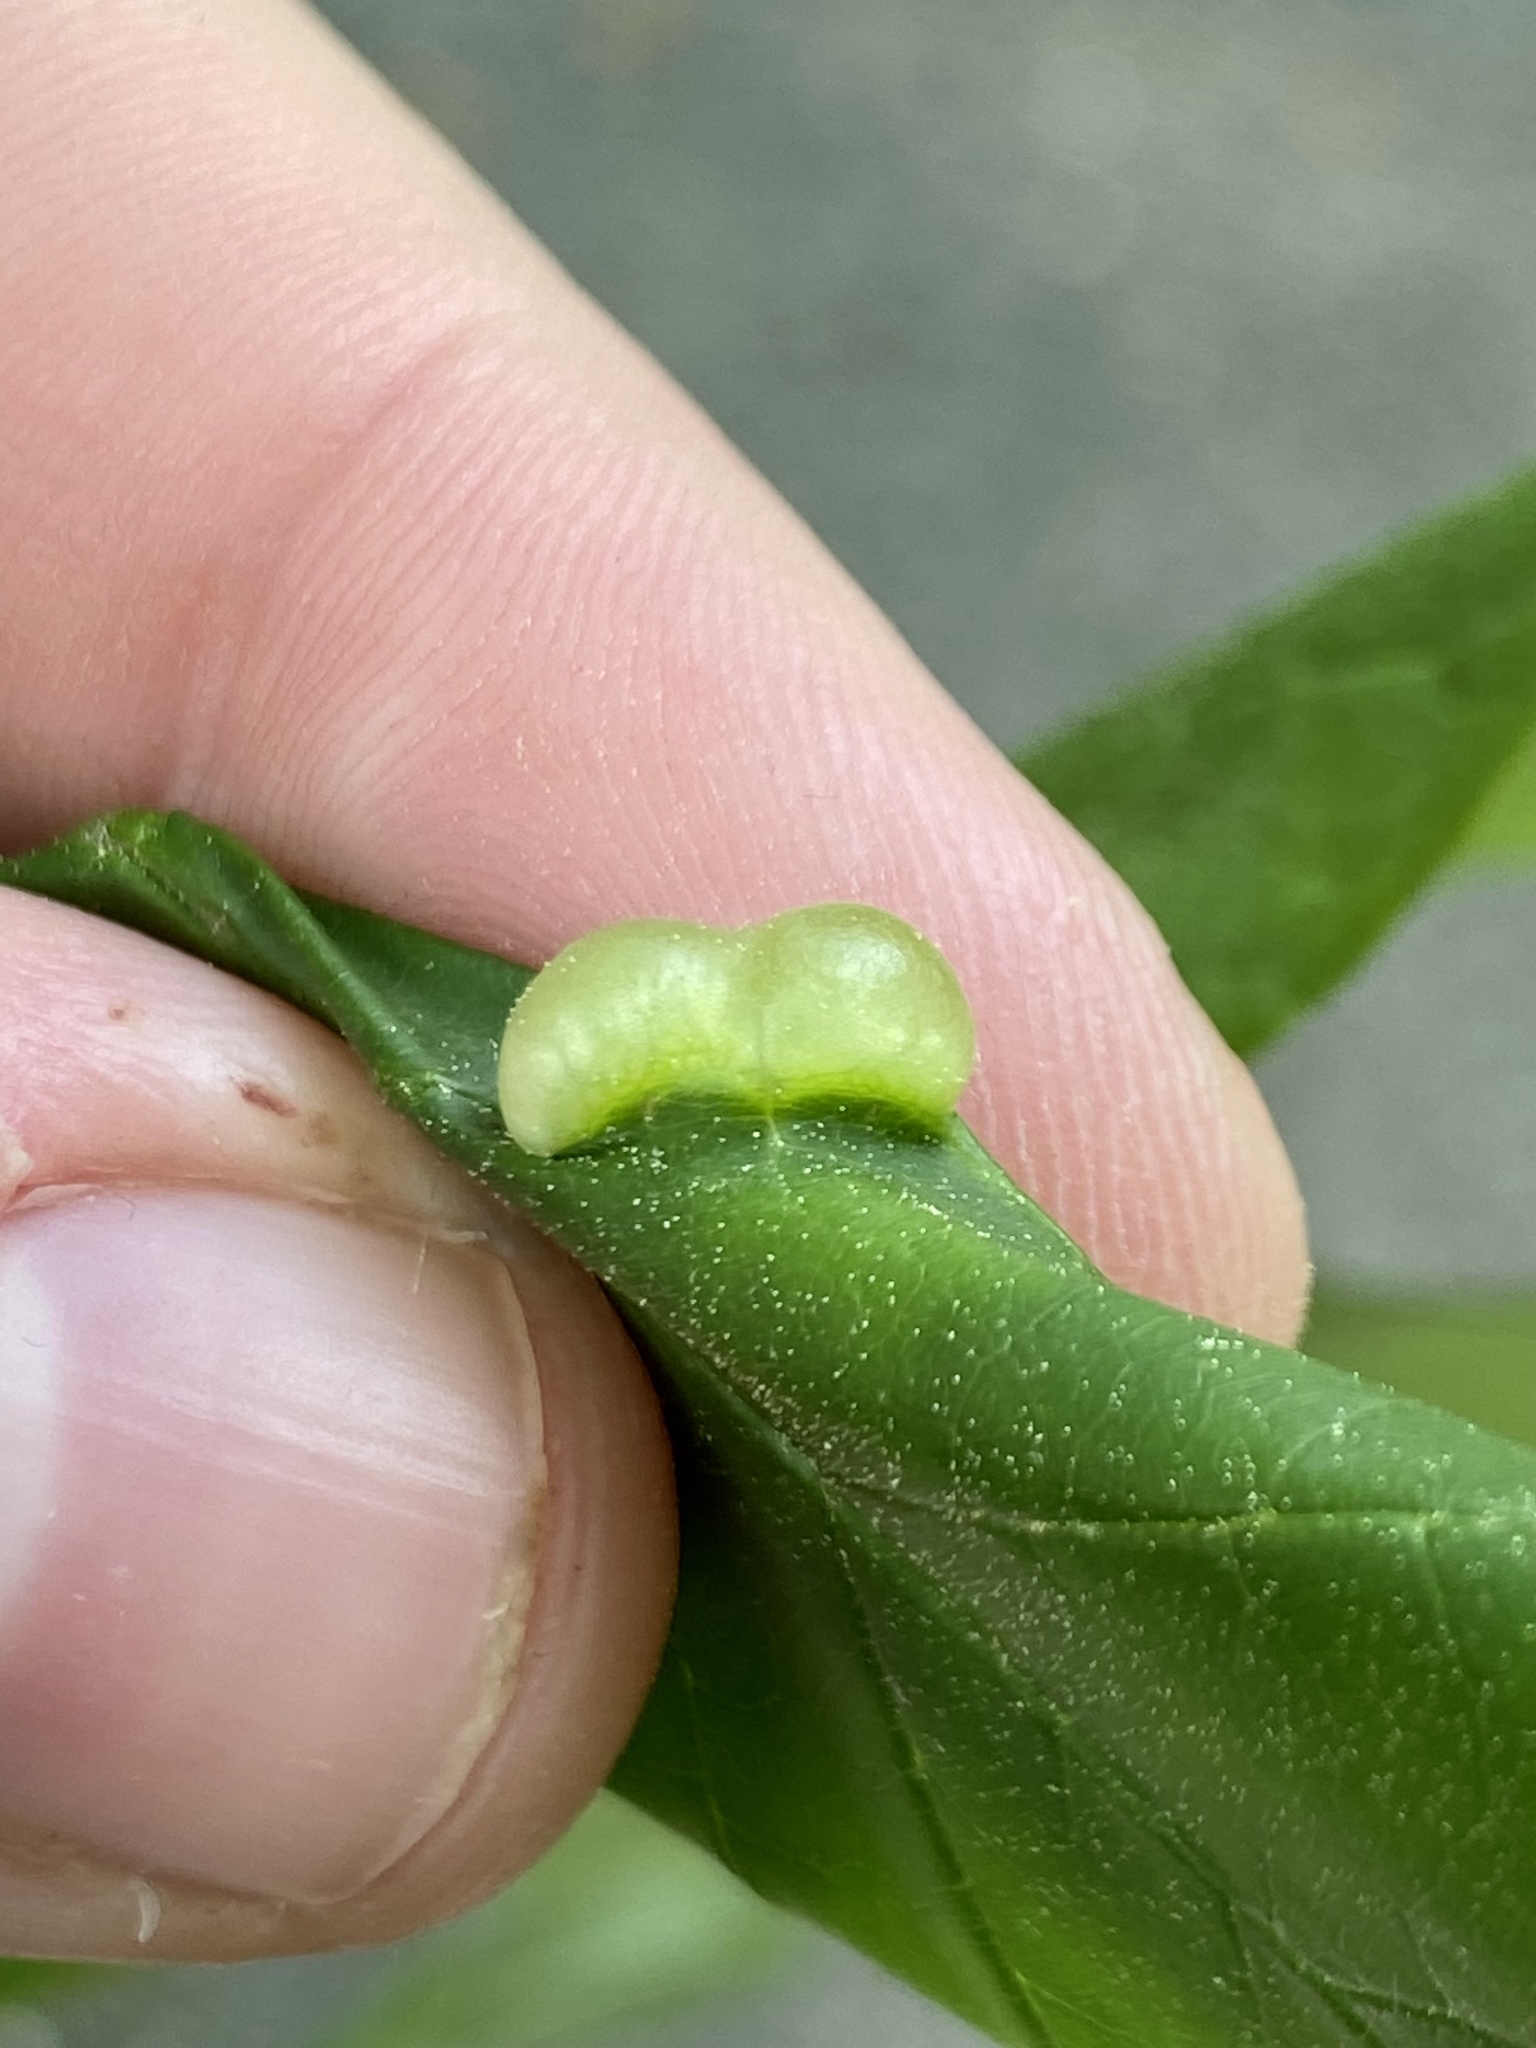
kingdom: Animalia
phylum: Arthropoda
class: Insecta
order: Diptera
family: Cecidomyiidae
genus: Dasineura
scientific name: Dasineura pellex
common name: Ash bullet gall midge
